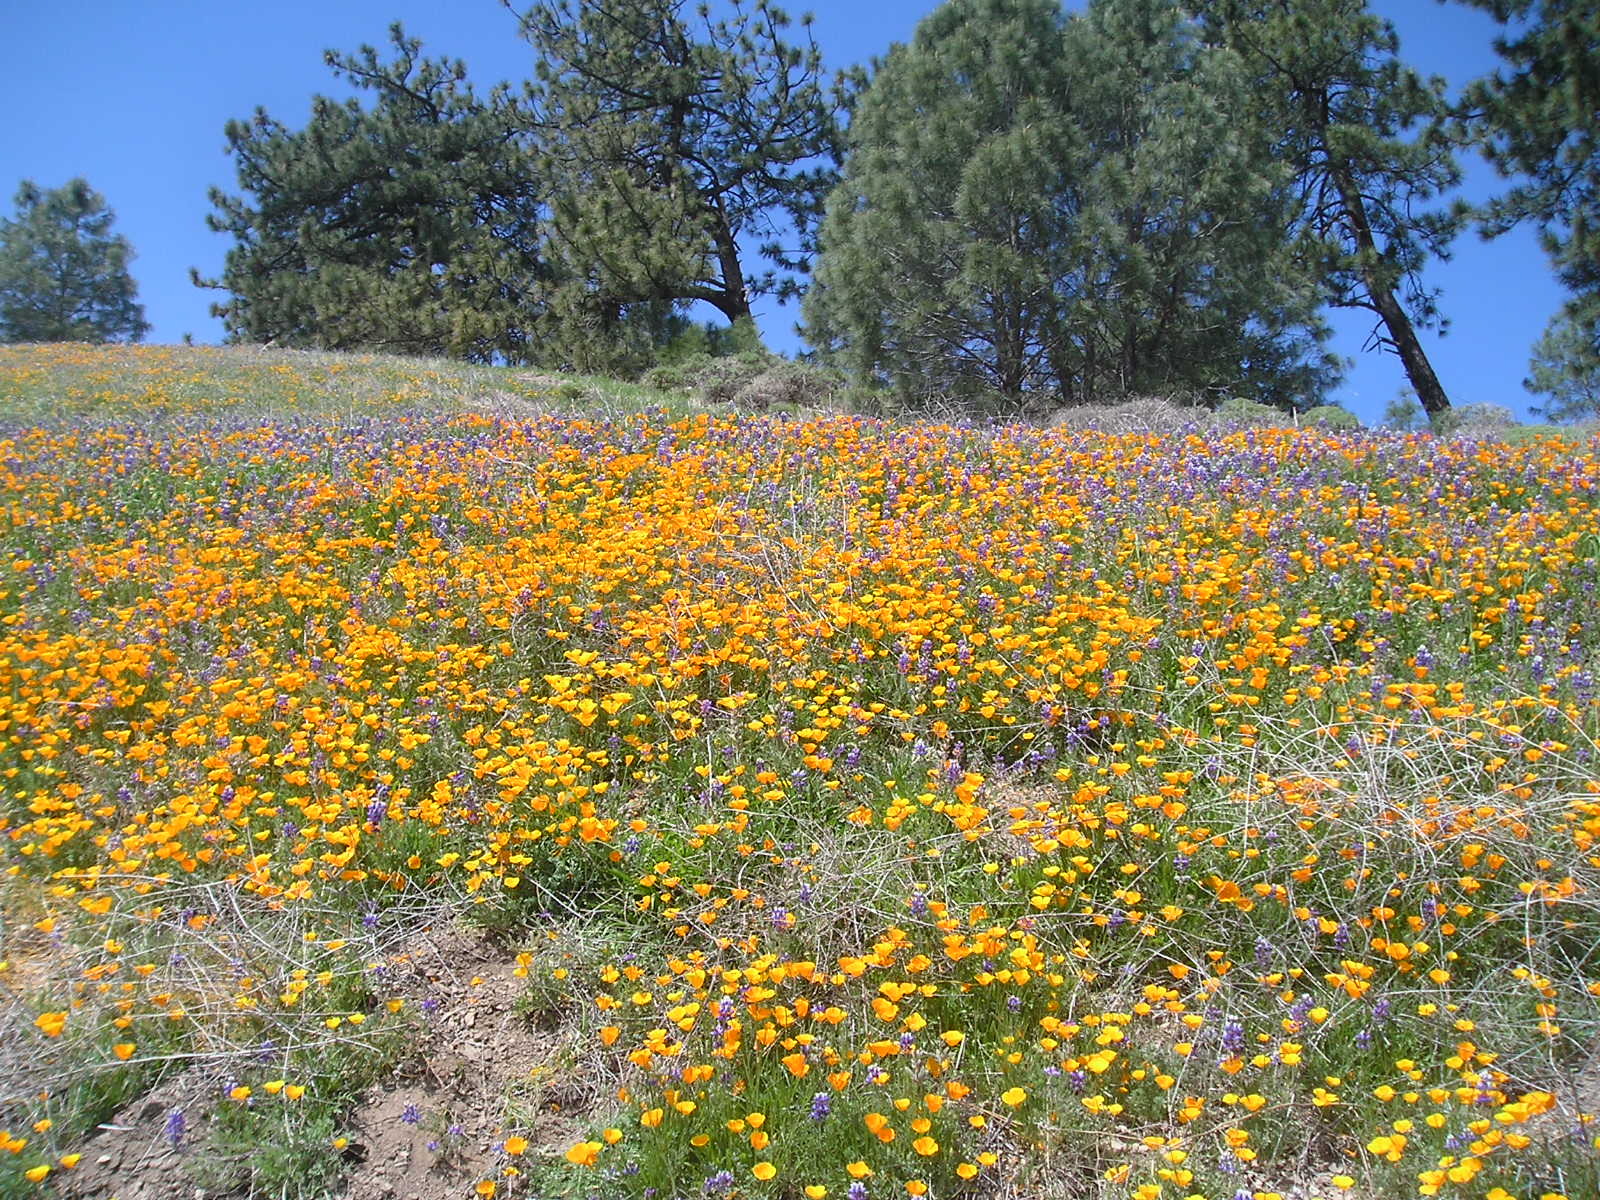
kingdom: Plantae
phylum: Tracheophyta
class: Magnoliopsida
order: Fabales
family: Fabaceae
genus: Lupinus
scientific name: Lupinus nanus
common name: Orean blue lupin
